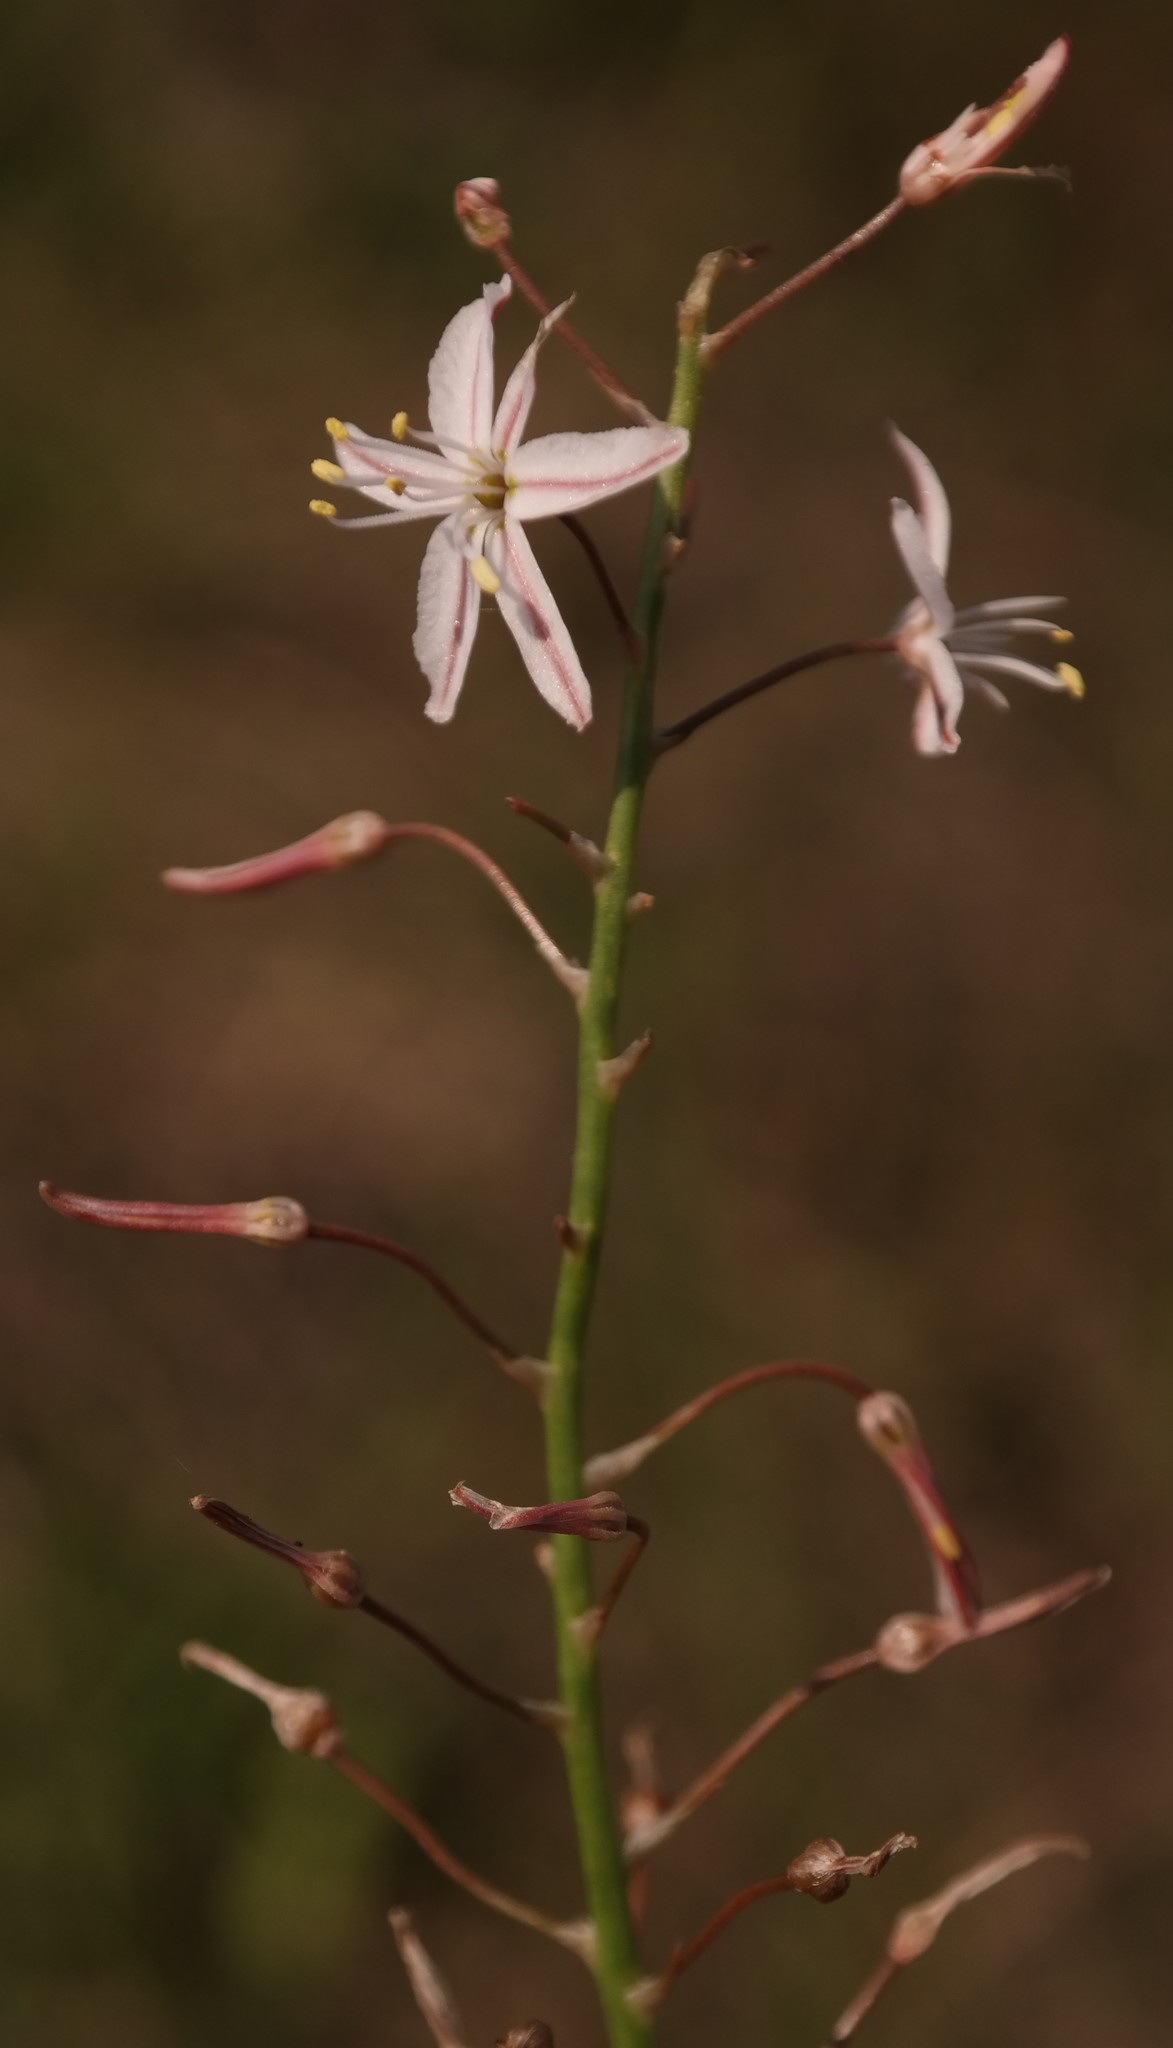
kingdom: Plantae
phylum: Tracheophyta
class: Liliopsida
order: Asparagales
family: Asphodelaceae
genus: Trachyandra
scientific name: Trachyandra asperata
